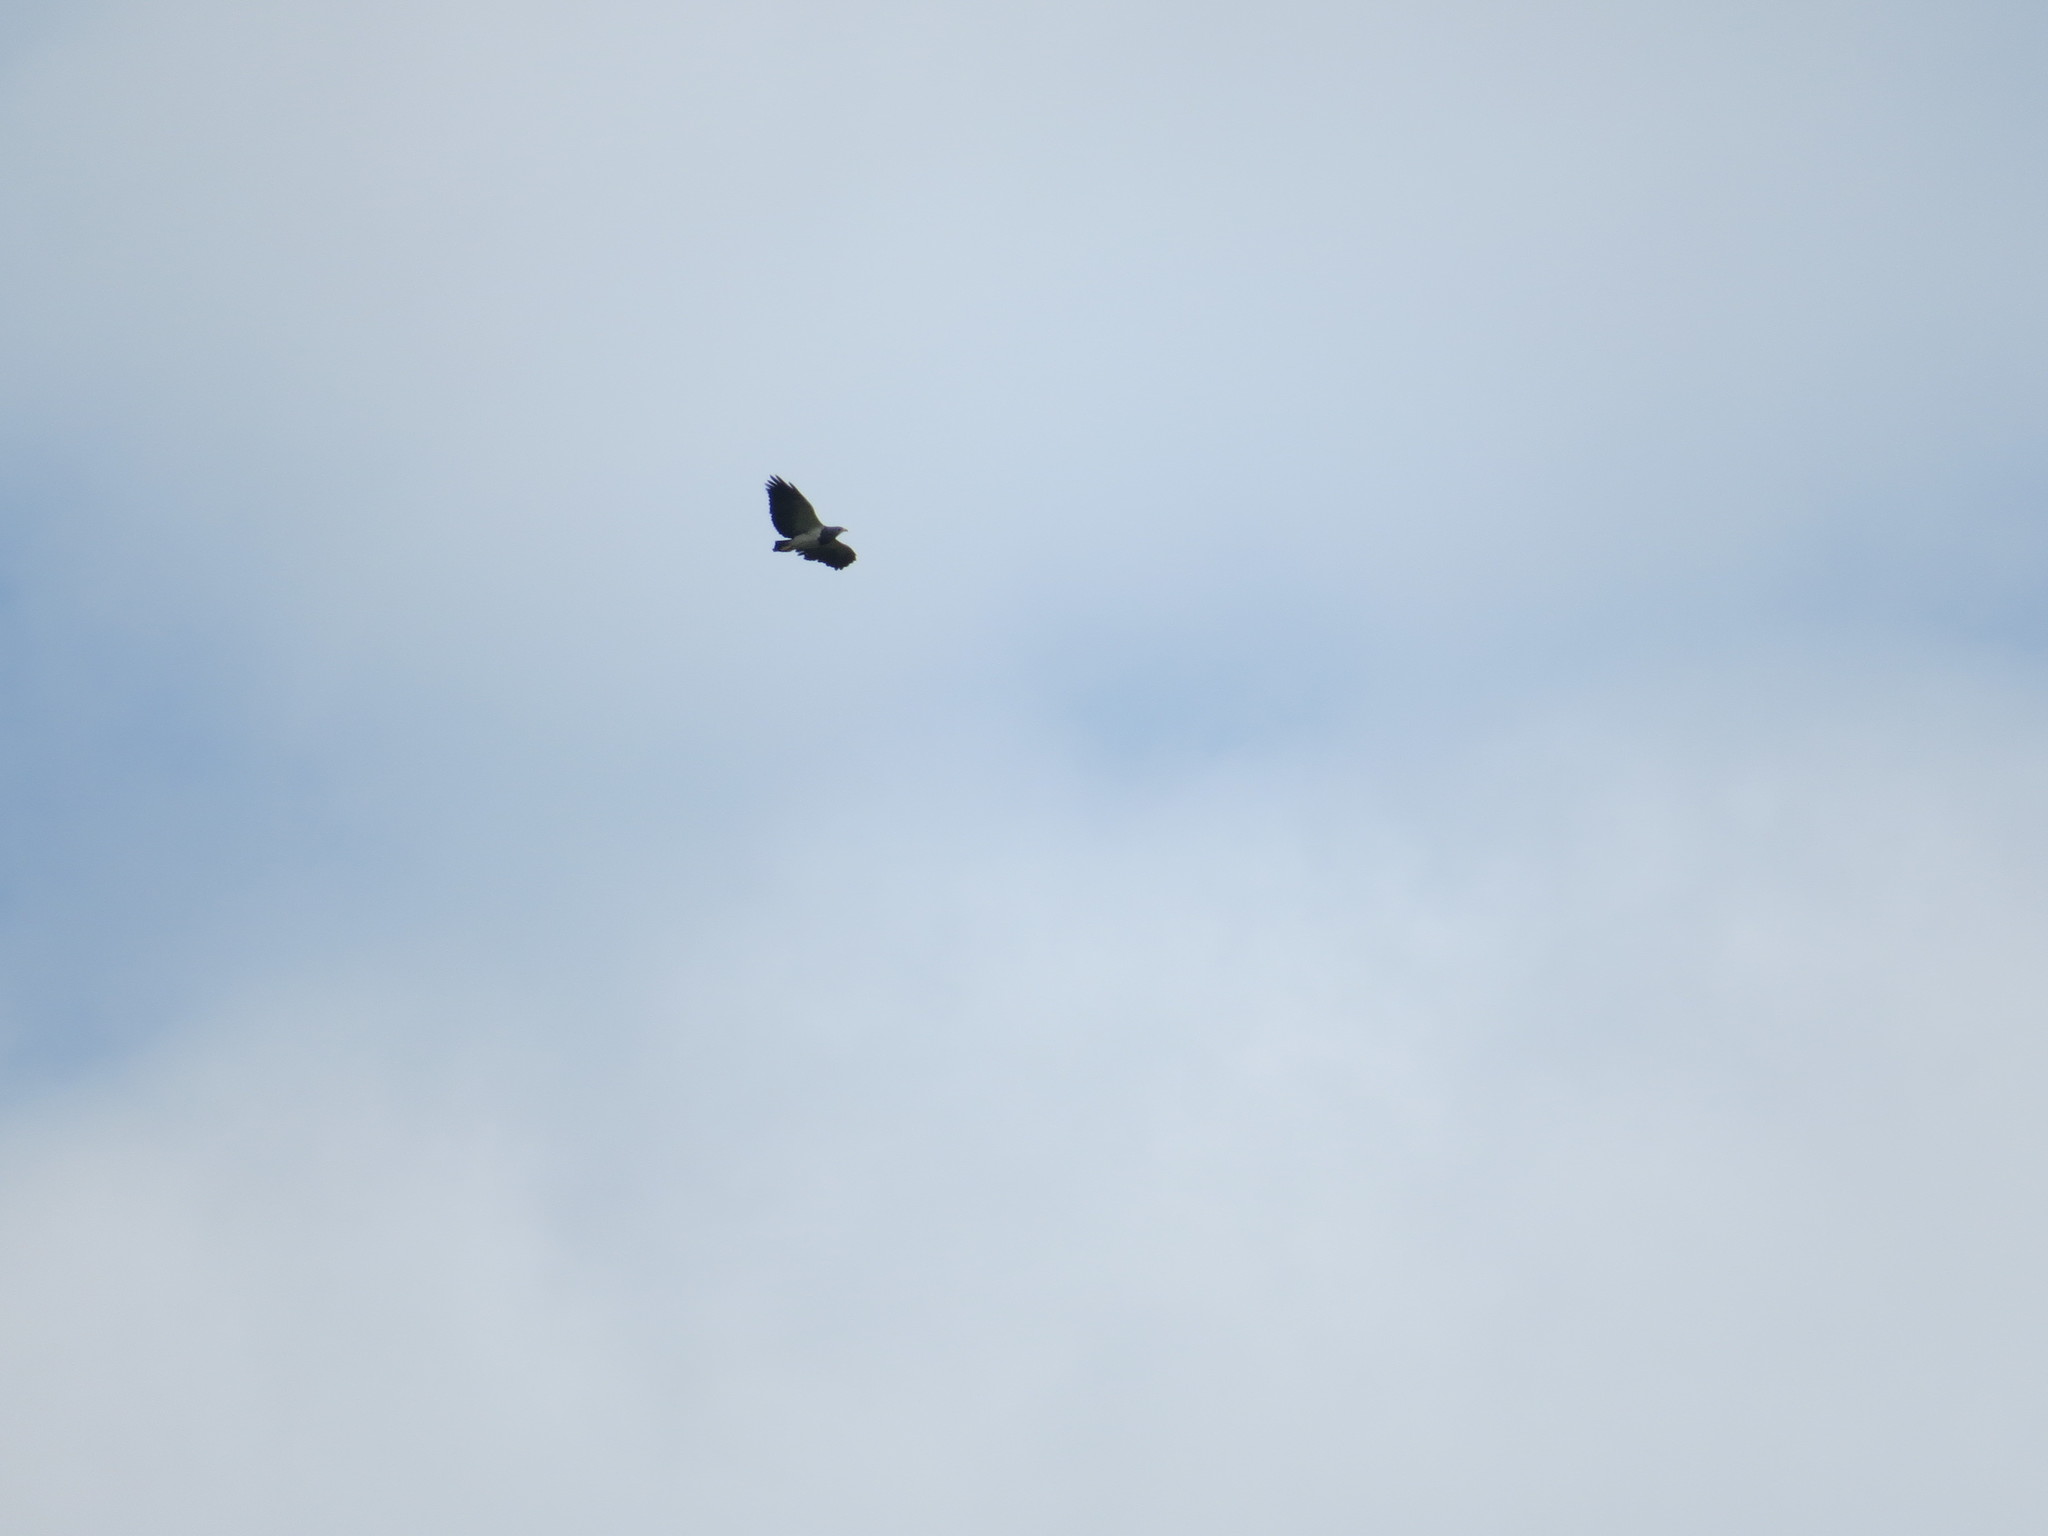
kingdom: Animalia
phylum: Chordata
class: Aves
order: Accipitriformes
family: Accipitridae
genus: Geranoaetus
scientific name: Geranoaetus melanoleucus
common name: Black-chested buzzard-eagle
